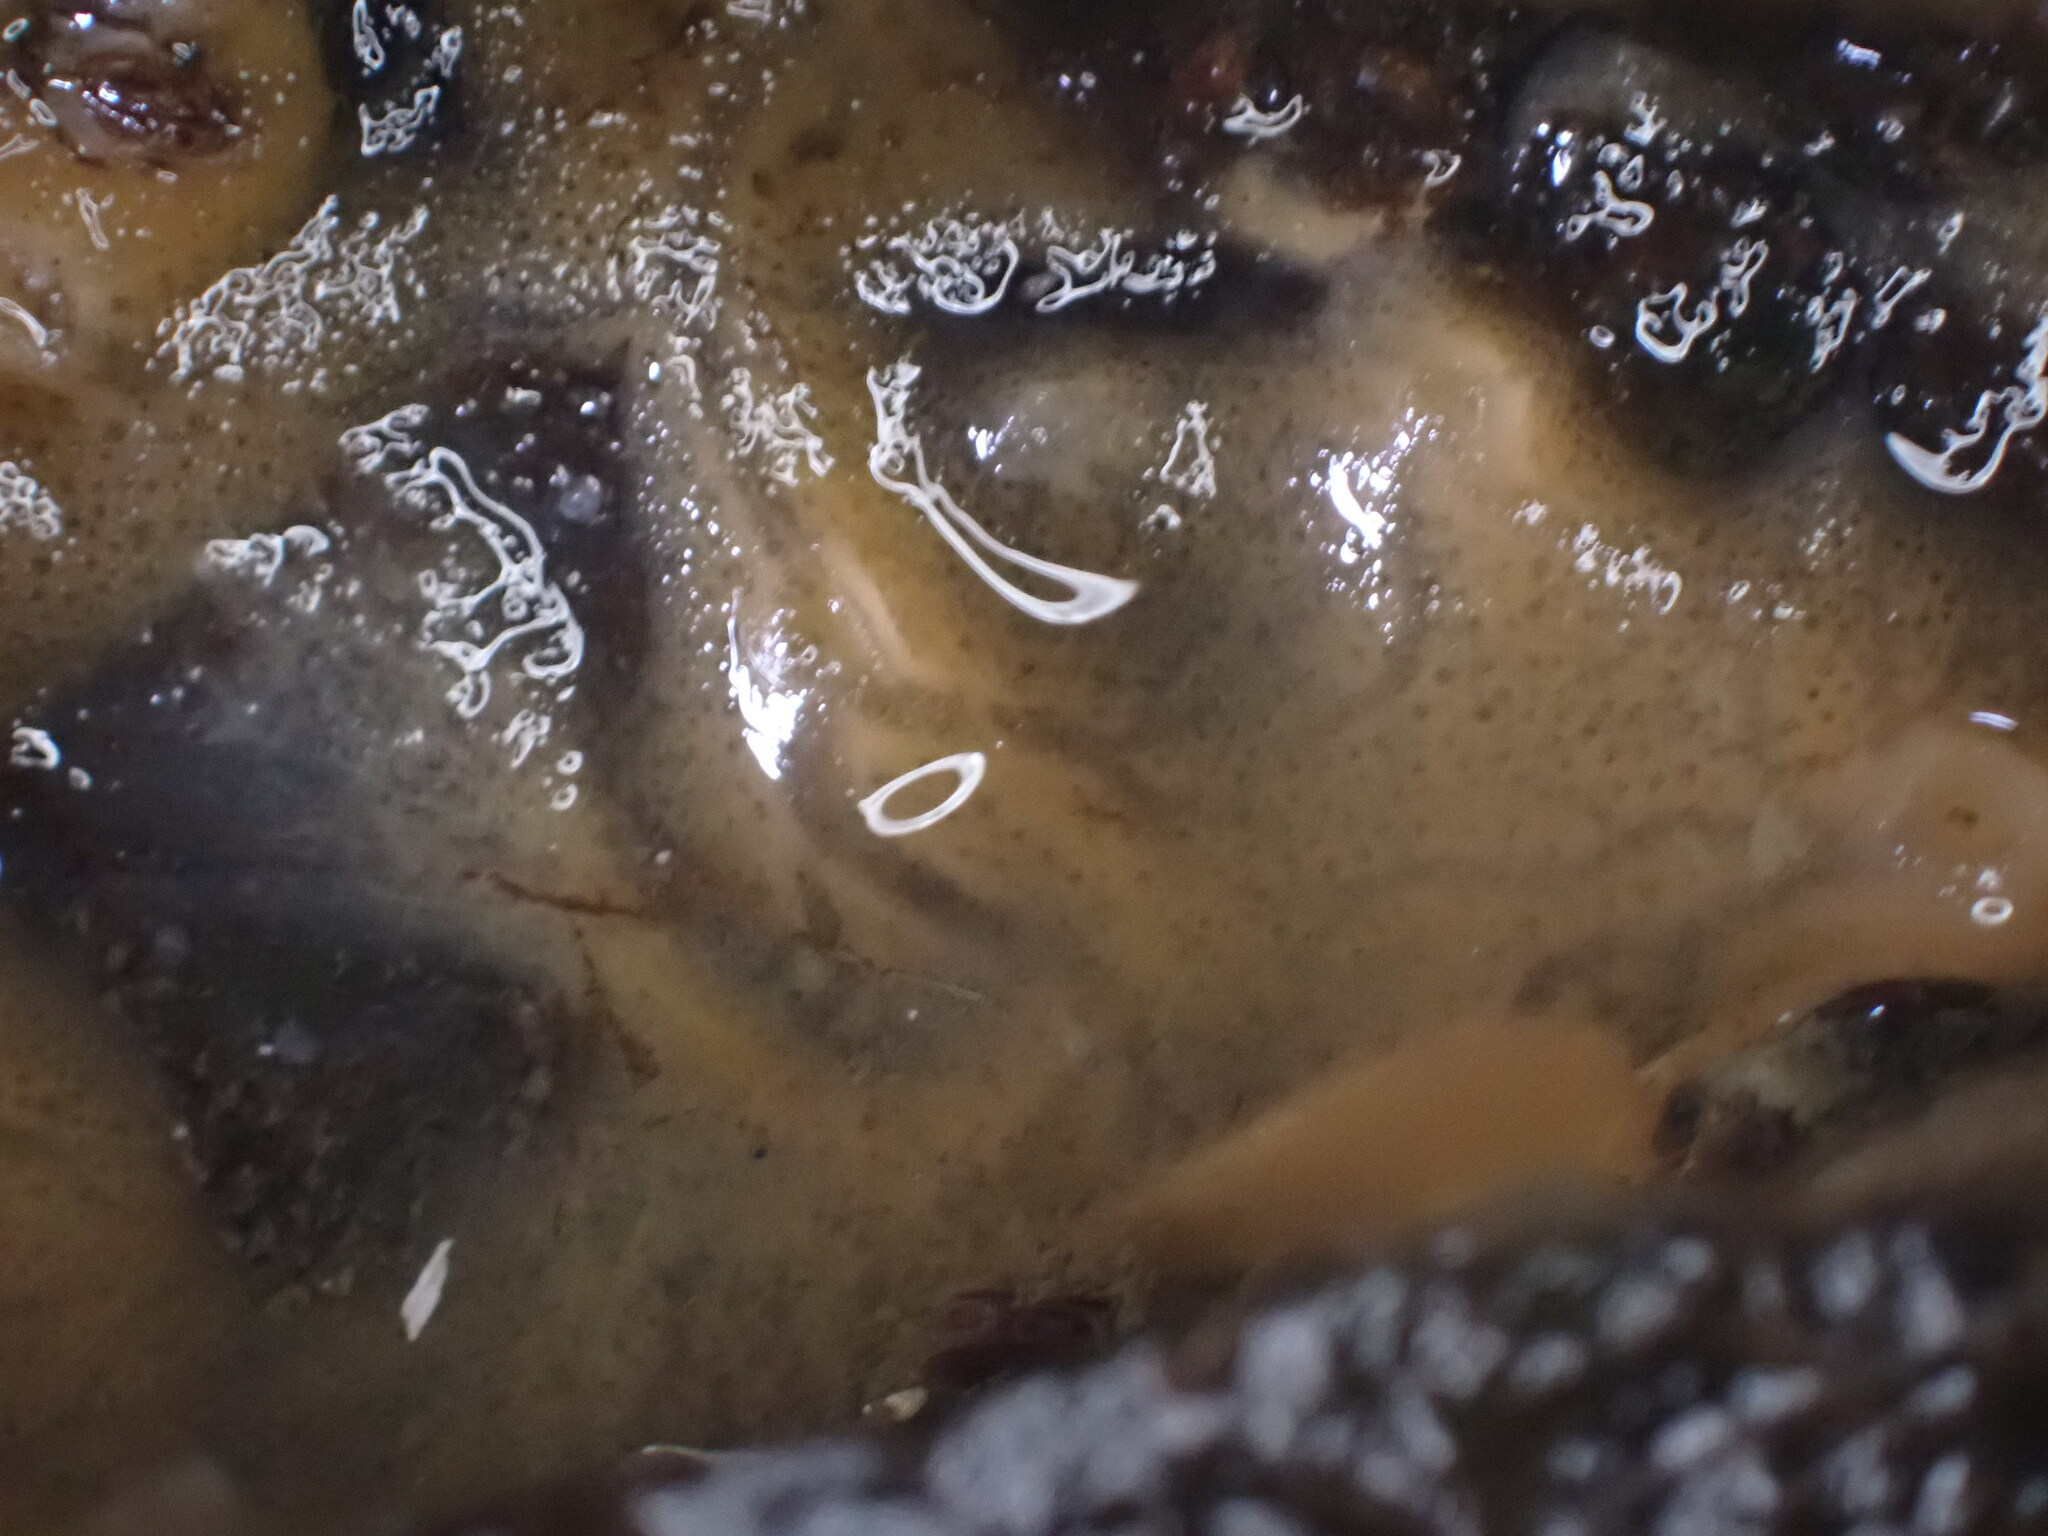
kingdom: Animalia
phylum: Porifera
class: Demospongiae
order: Suberitida
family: Halichondriidae
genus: Halichondria
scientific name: Halichondria panicea
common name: Breadcrumb sponge
